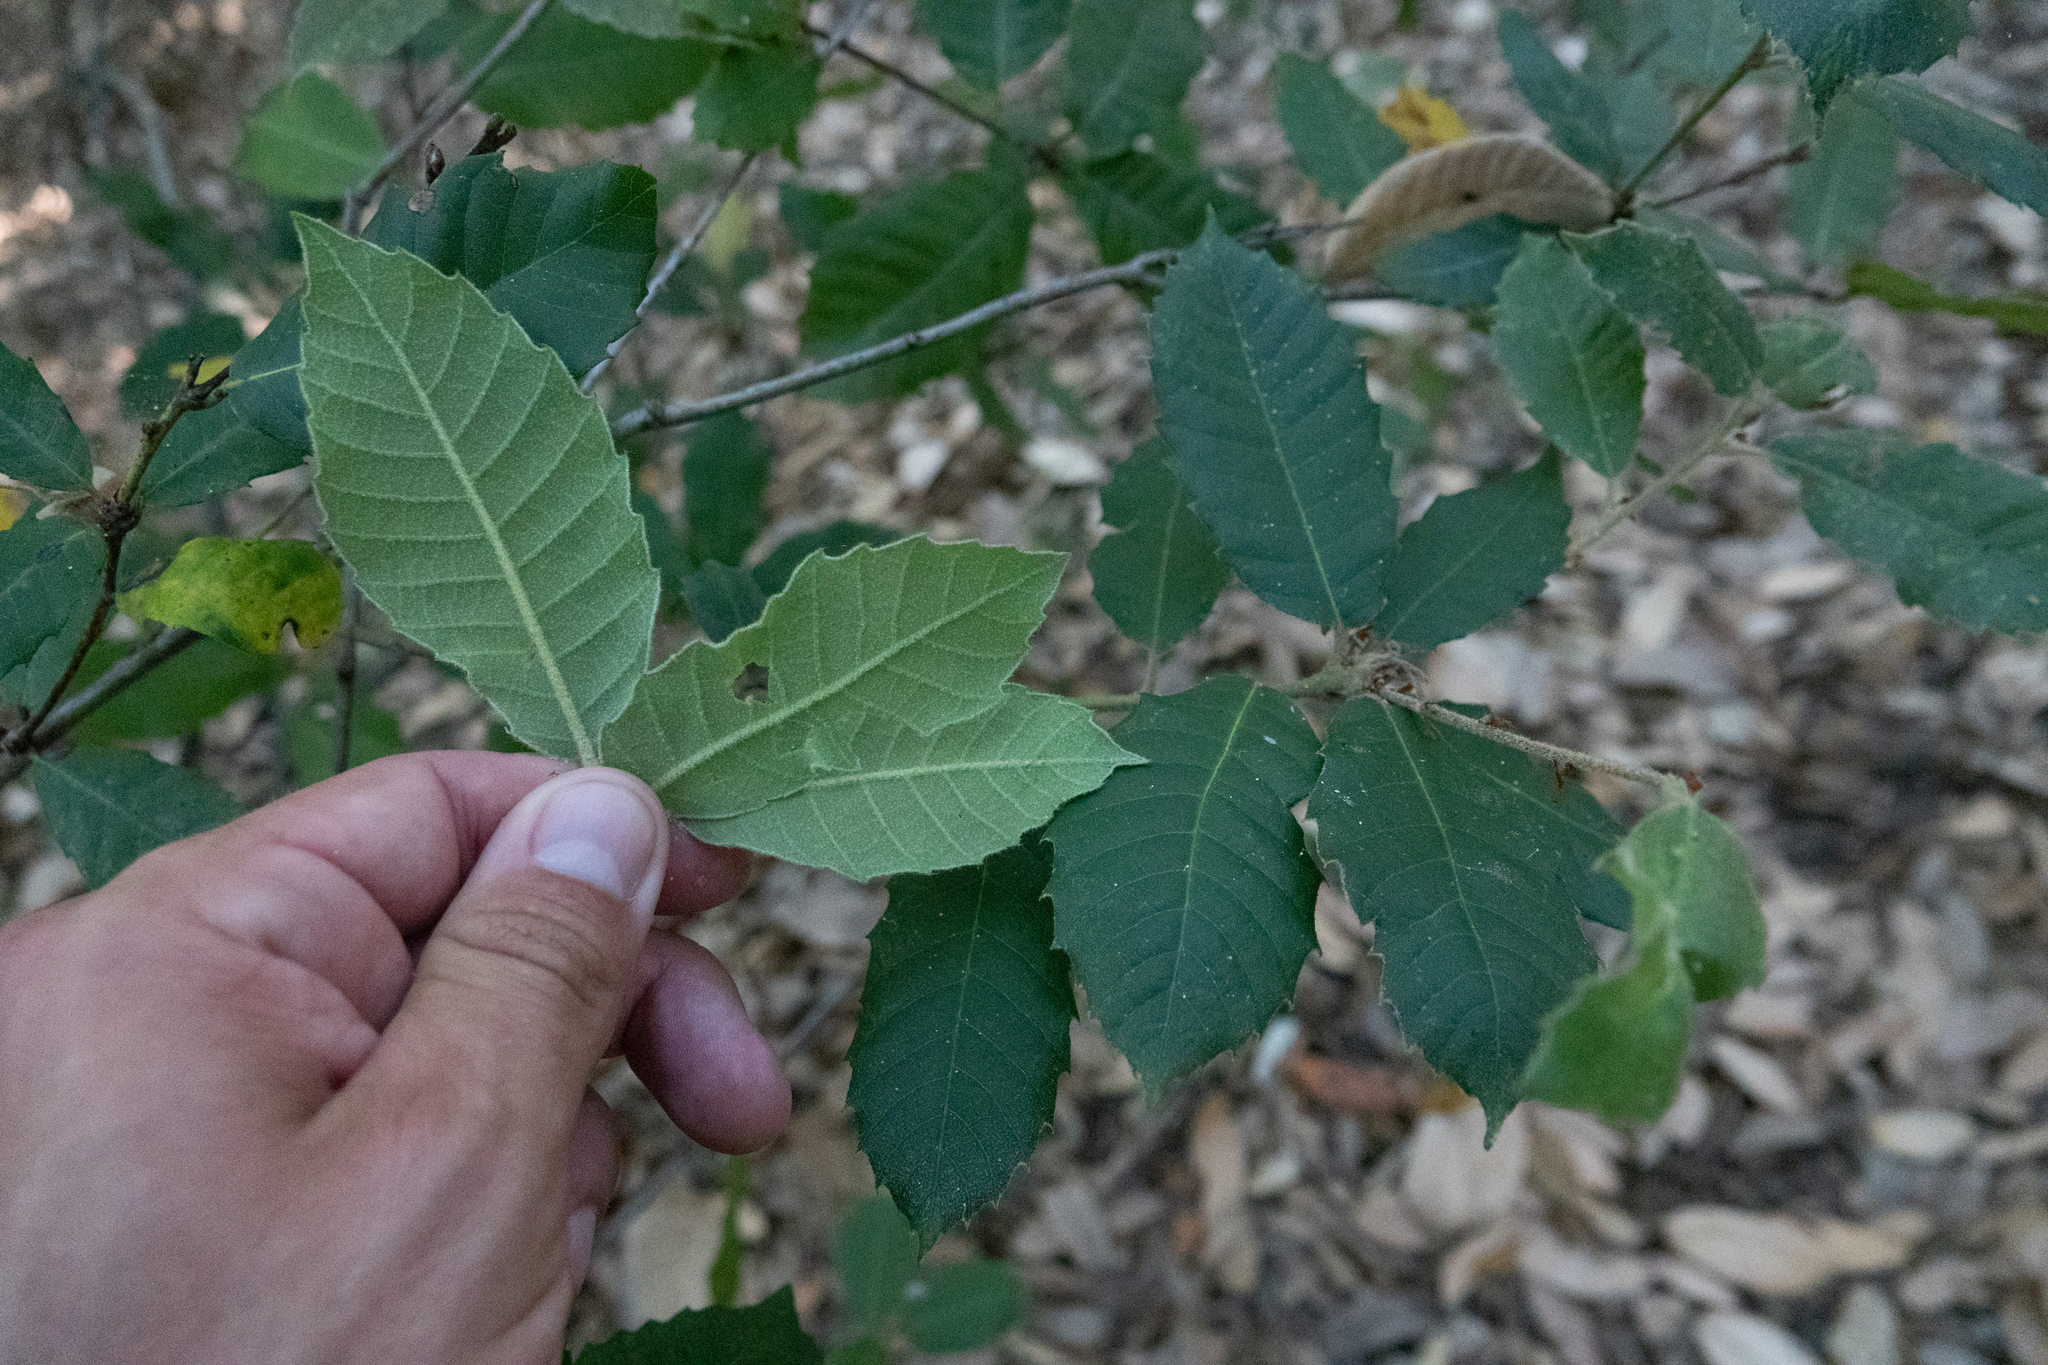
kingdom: Plantae
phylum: Tracheophyta
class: Magnoliopsida
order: Fagales
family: Fagaceae
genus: Notholithocarpus
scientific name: Notholithocarpus densiflorus
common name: Tan bark oak
